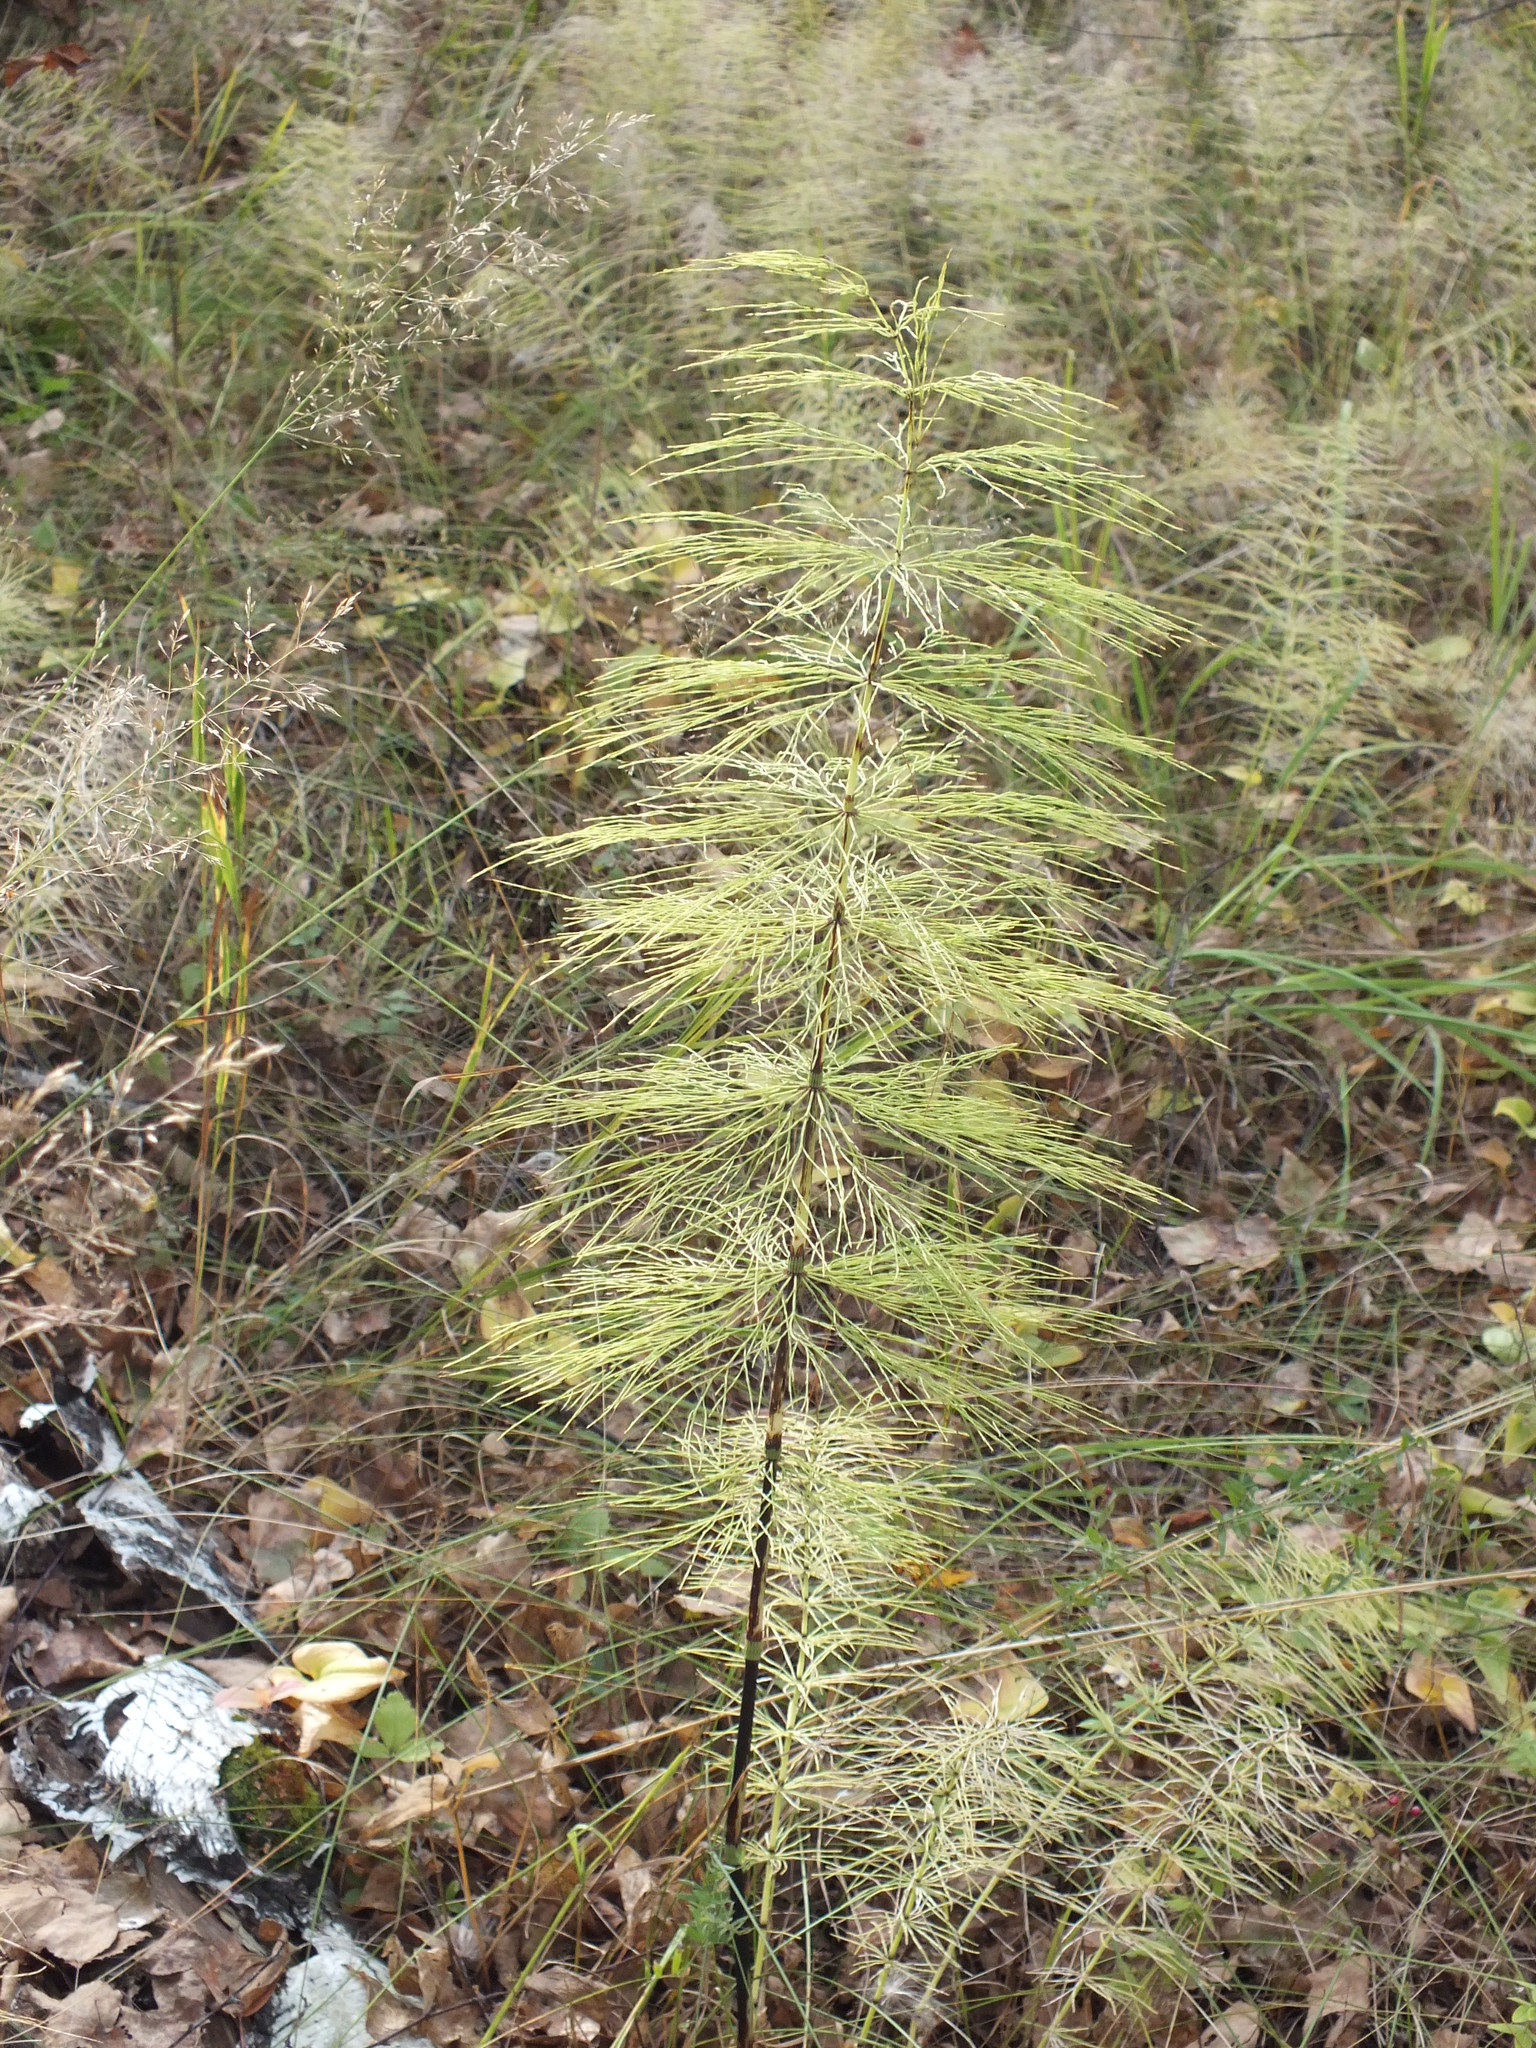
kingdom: Plantae
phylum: Tracheophyta
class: Polypodiopsida
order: Equisetales
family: Equisetaceae
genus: Equisetum
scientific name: Equisetum sylvaticum
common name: Wood horsetail
